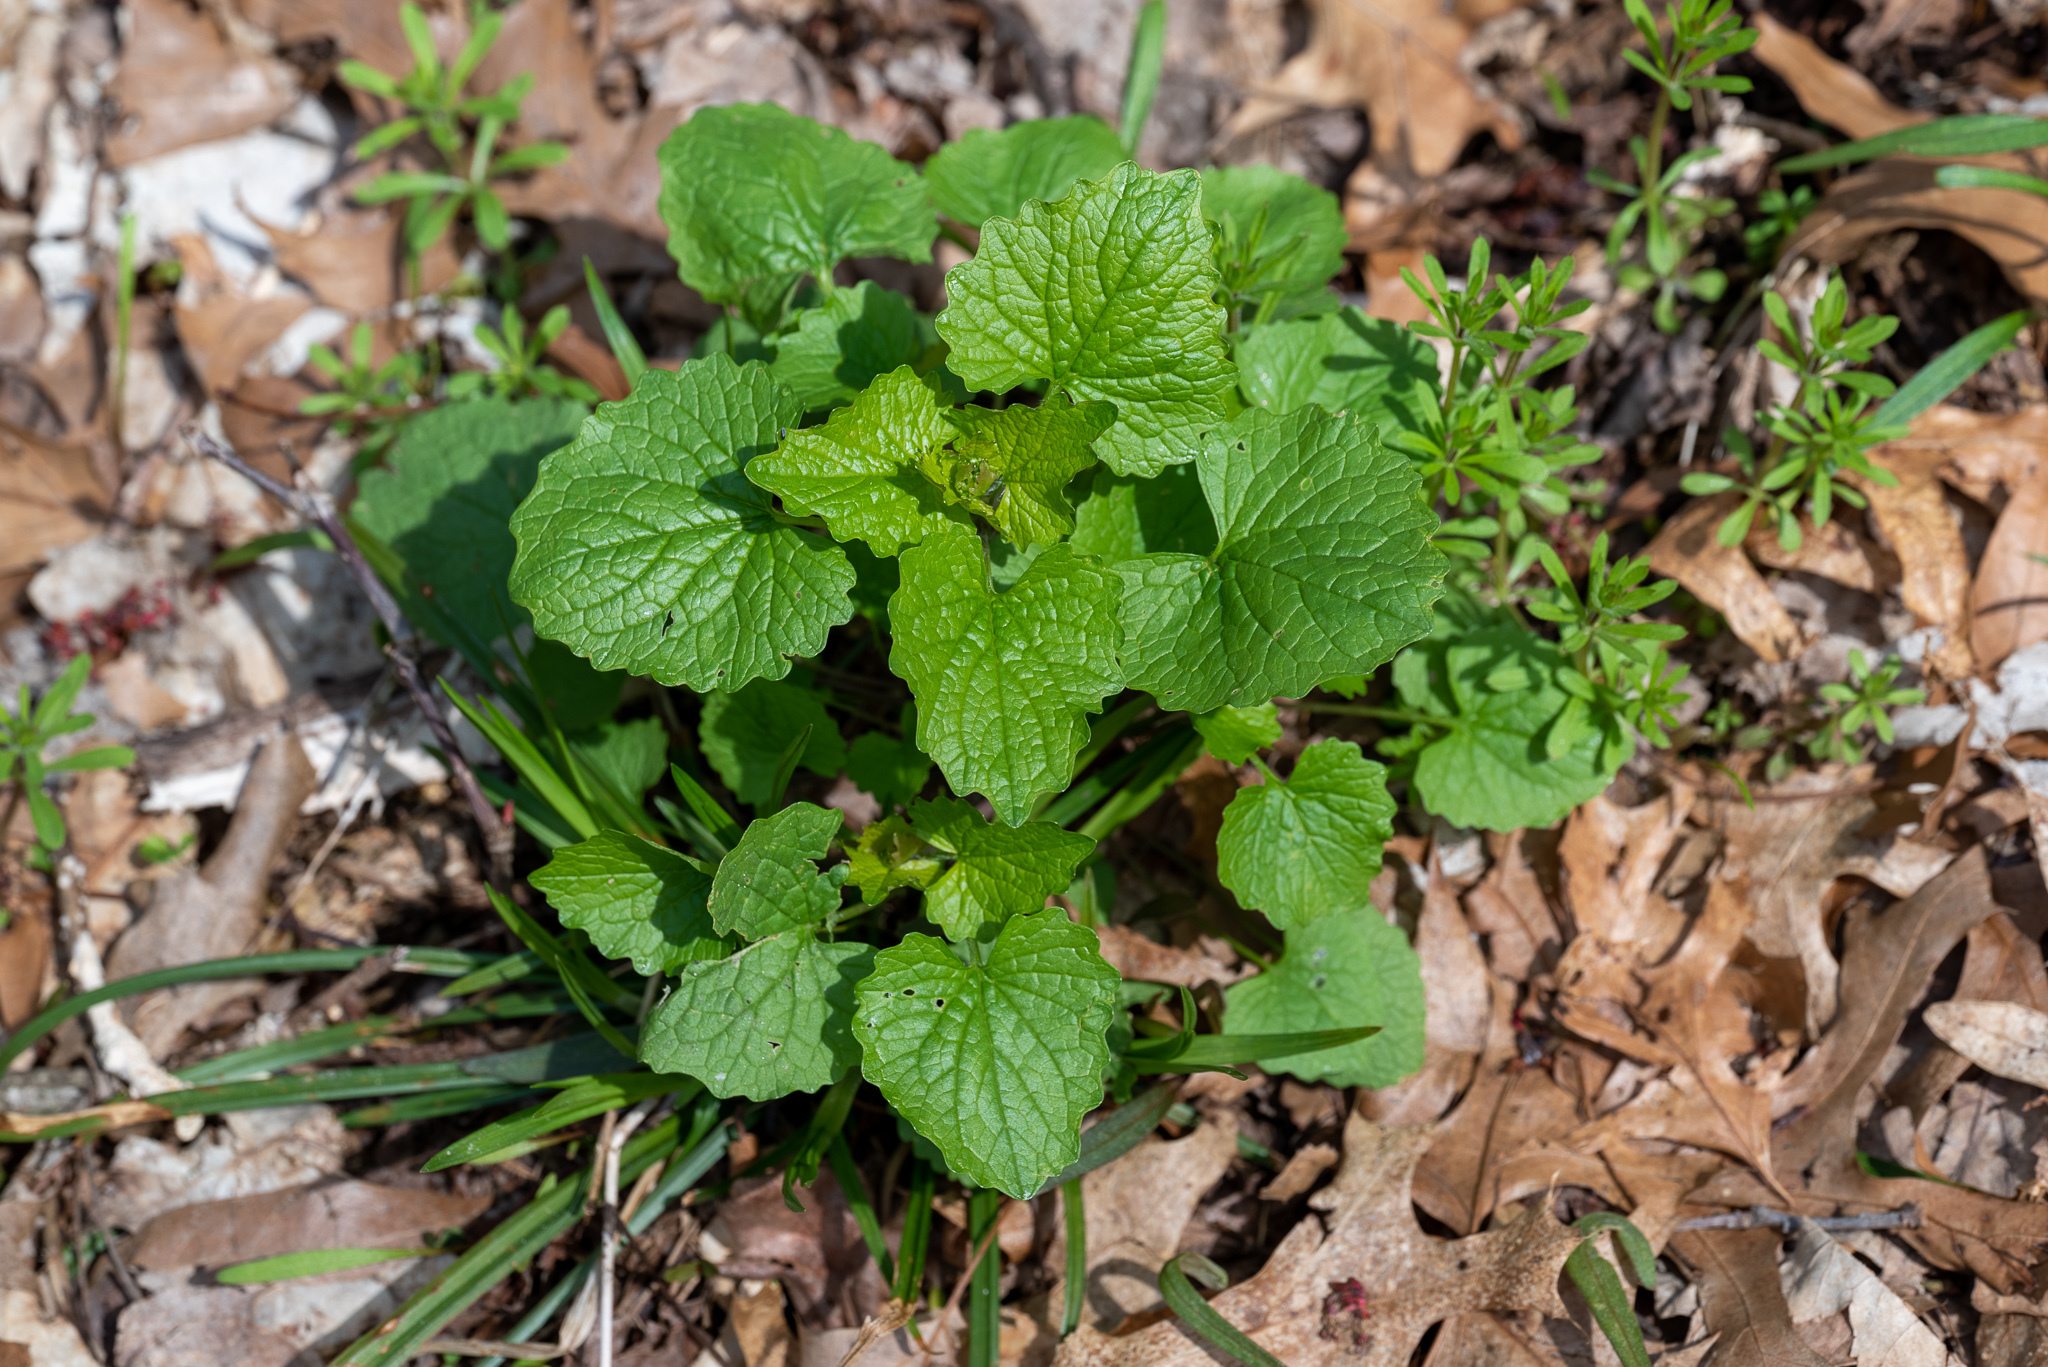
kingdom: Plantae
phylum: Tracheophyta
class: Magnoliopsida
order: Brassicales
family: Brassicaceae
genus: Alliaria
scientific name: Alliaria petiolata
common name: Garlic mustard
